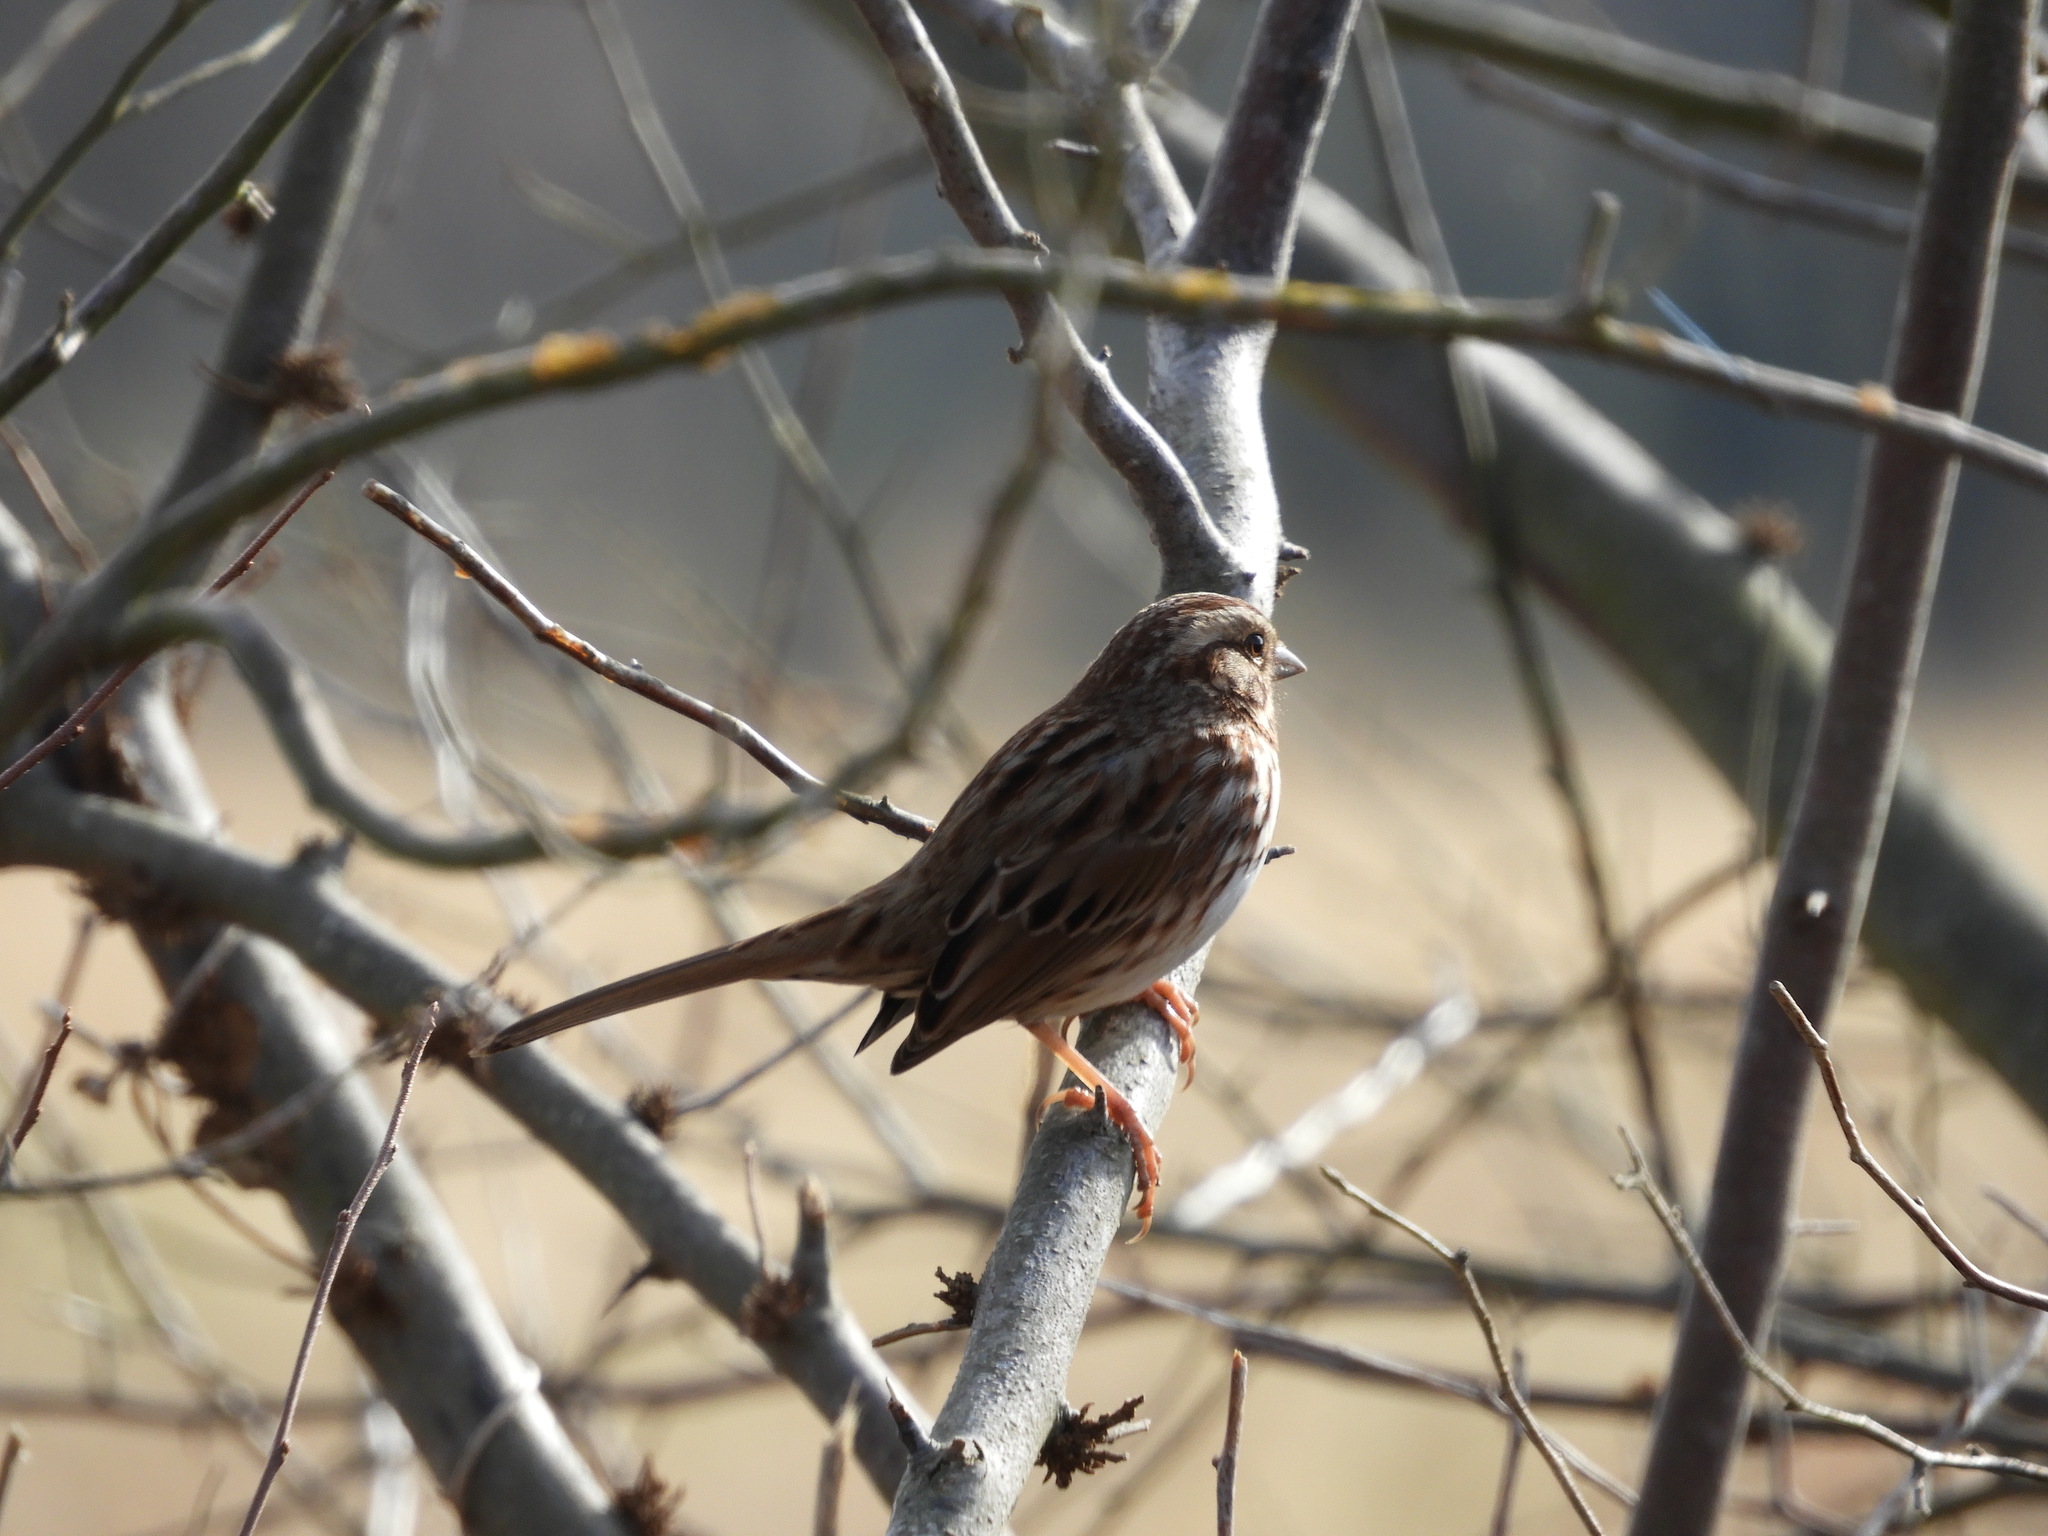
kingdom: Animalia
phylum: Chordata
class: Aves
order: Passeriformes
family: Passerellidae
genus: Melospiza
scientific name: Melospiza melodia
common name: Song sparrow
